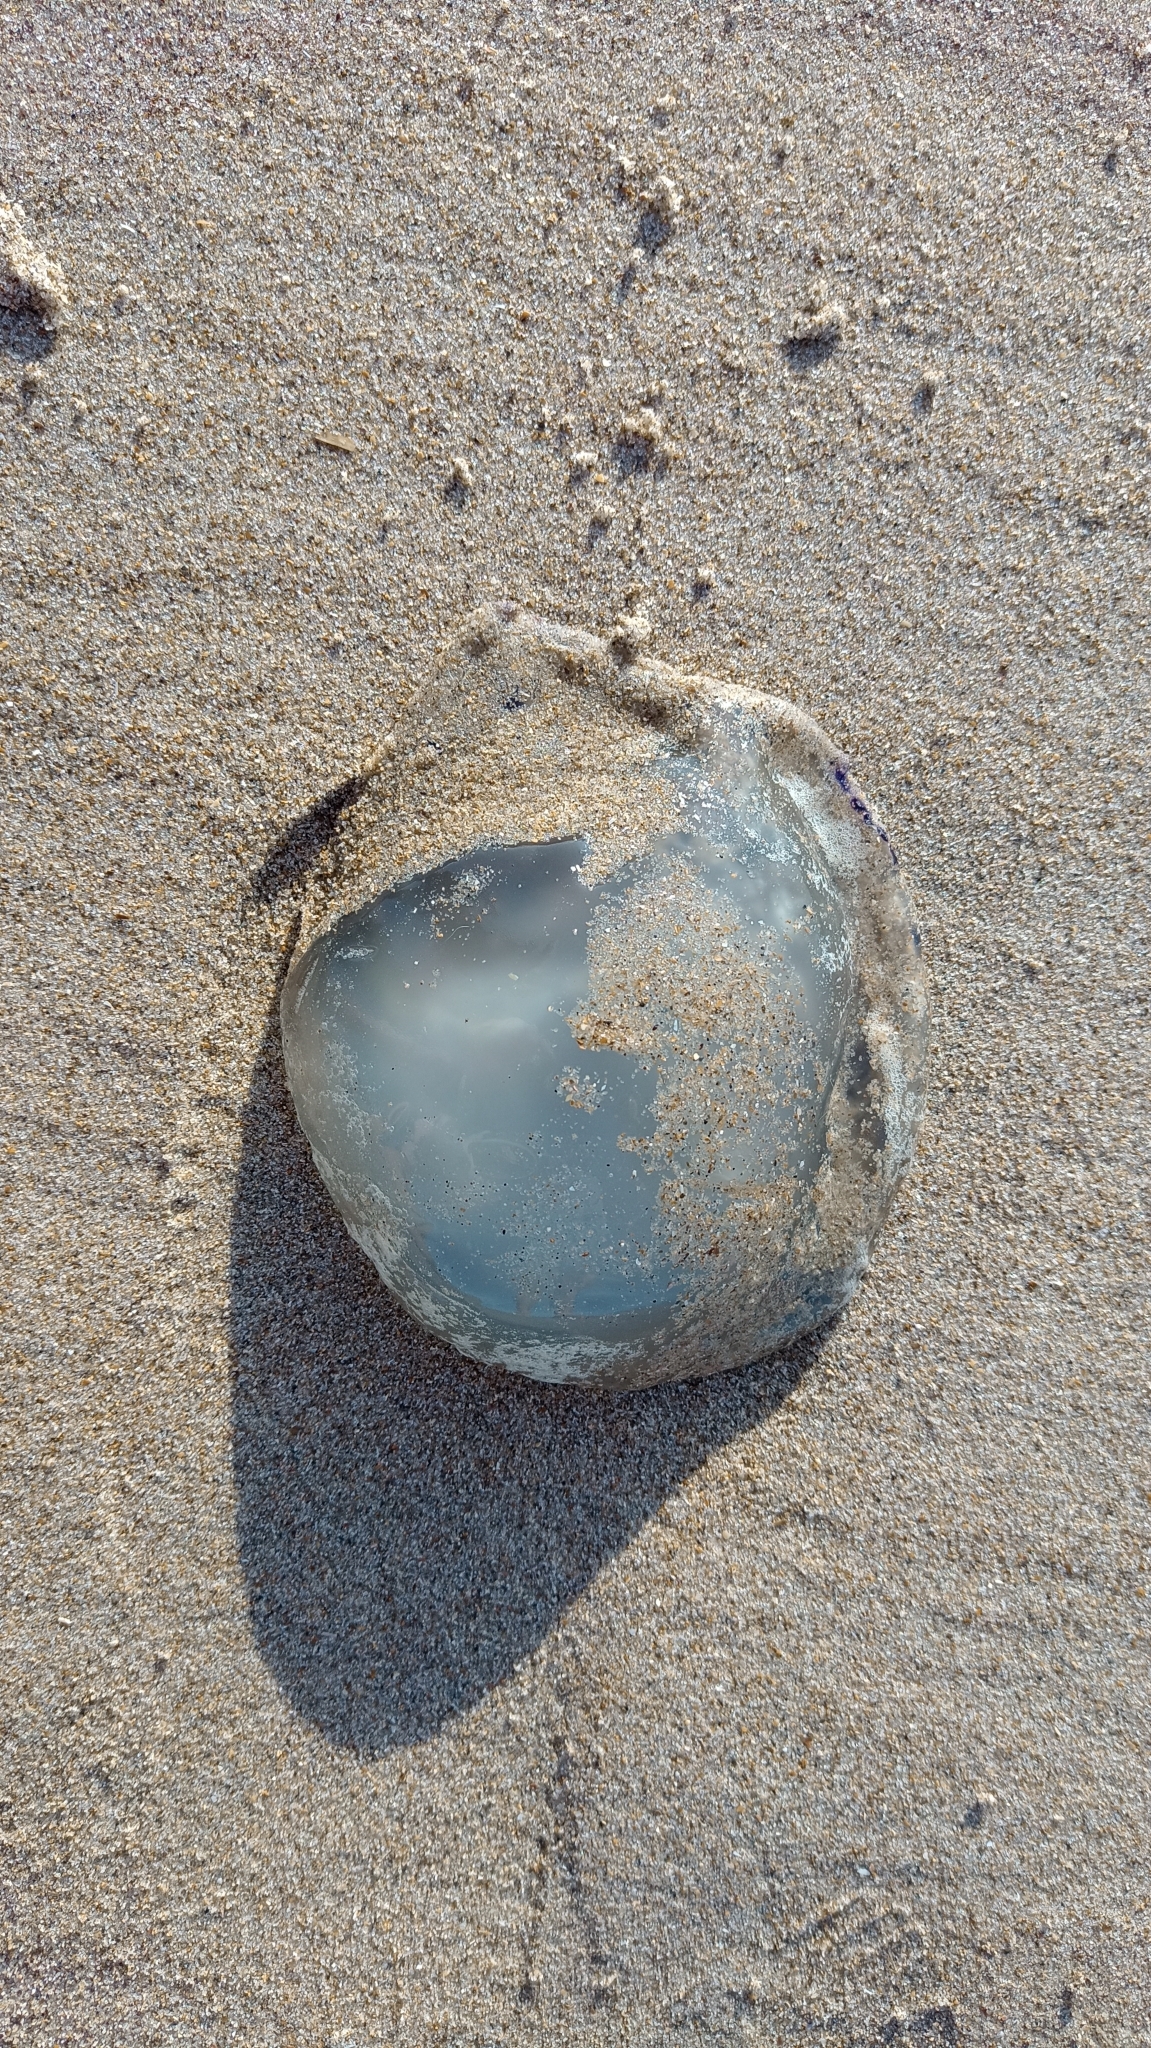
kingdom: Animalia
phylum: Cnidaria
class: Scyphozoa
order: Rhizostomeae
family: Rhizostomatidae
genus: Rhizostoma
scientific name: Rhizostoma octopus
